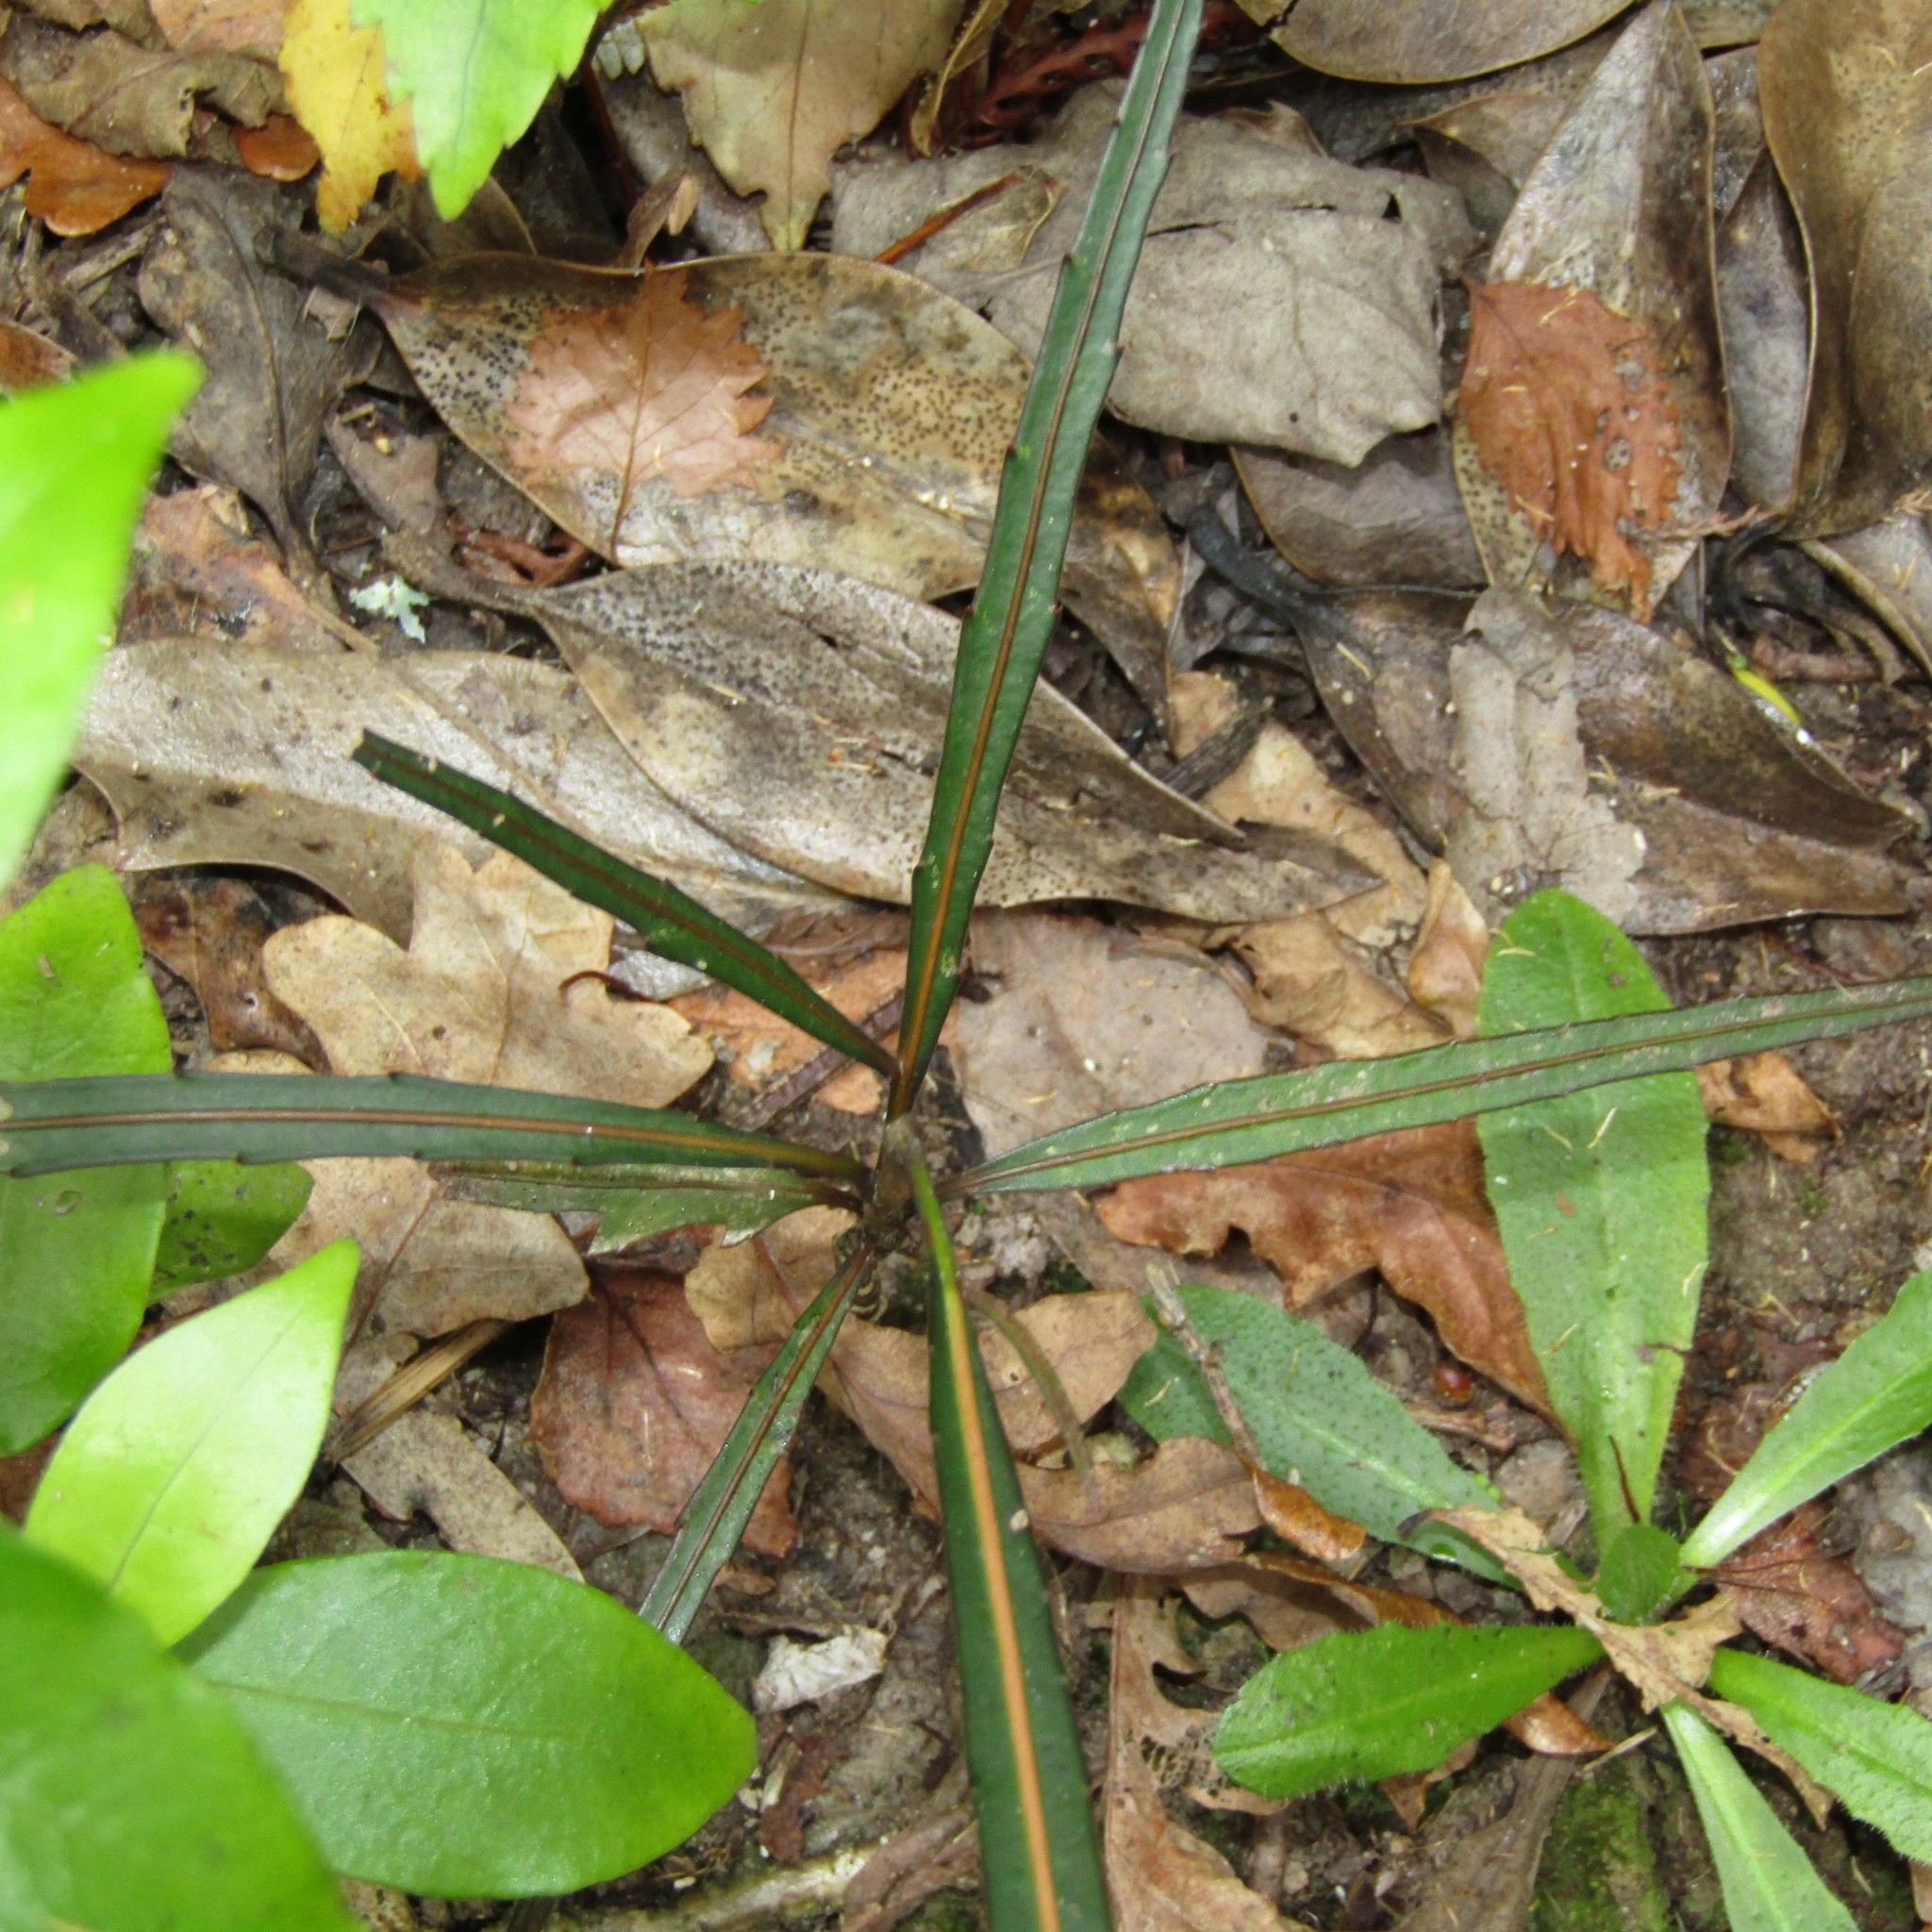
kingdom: Plantae
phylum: Tracheophyta
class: Magnoliopsida
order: Apiales
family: Araliaceae
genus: Pseudopanax
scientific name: Pseudopanax
